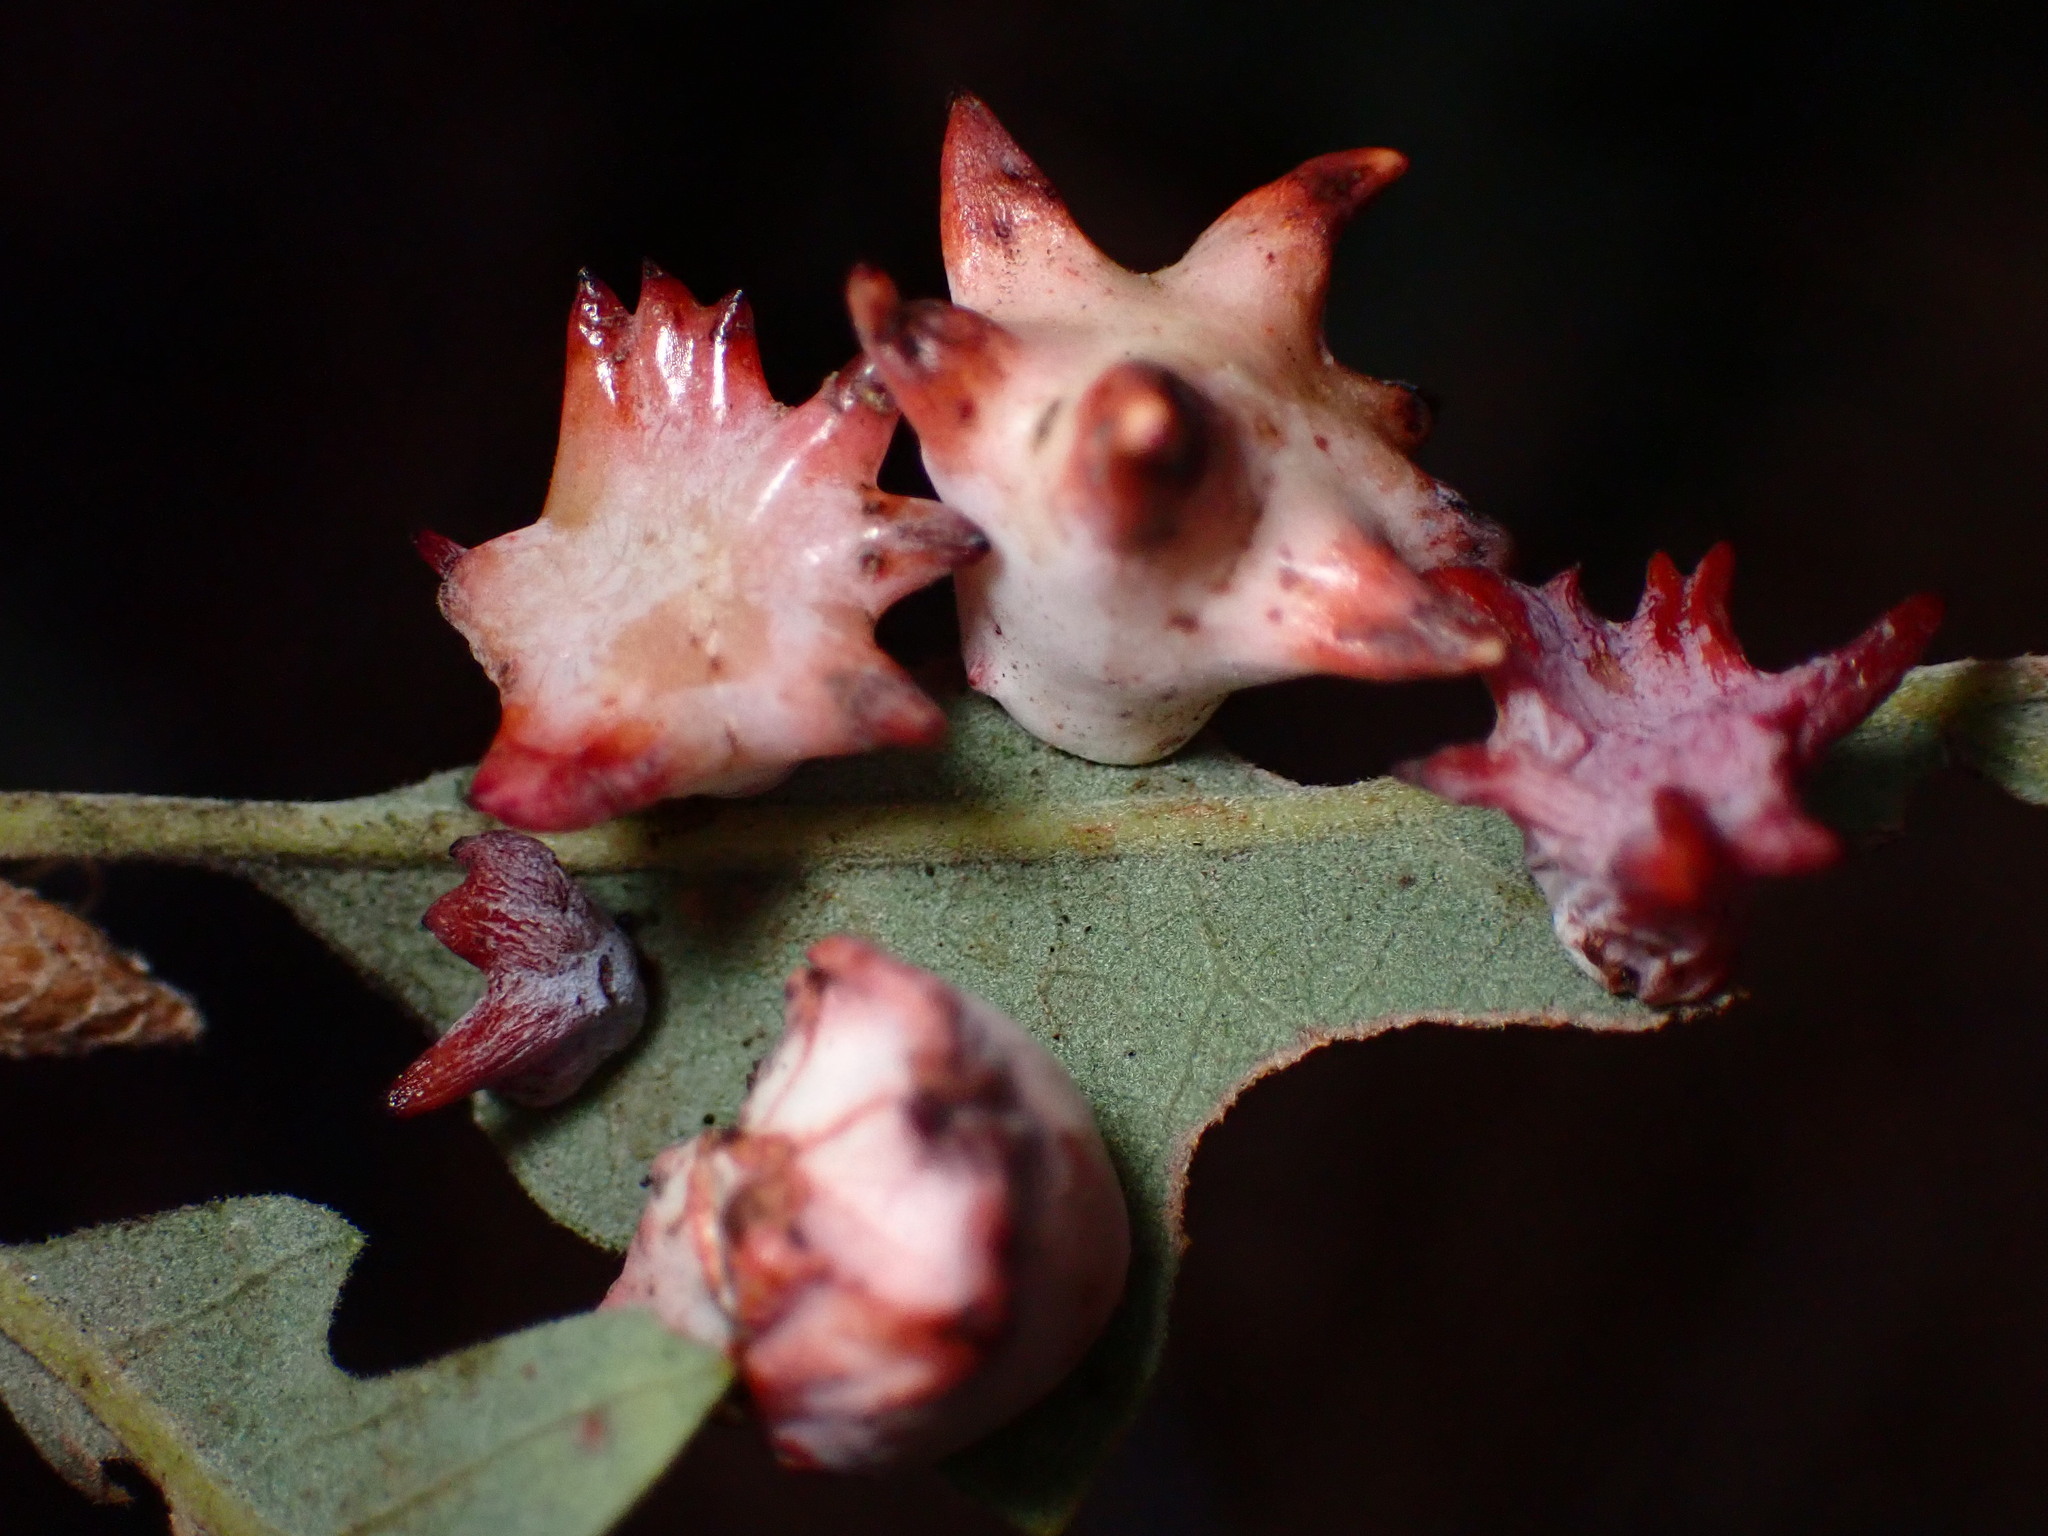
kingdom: Animalia
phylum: Arthropoda
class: Insecta
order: Hymenoptera
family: Cynipidae
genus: Cynips
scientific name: Cynips douglasi
